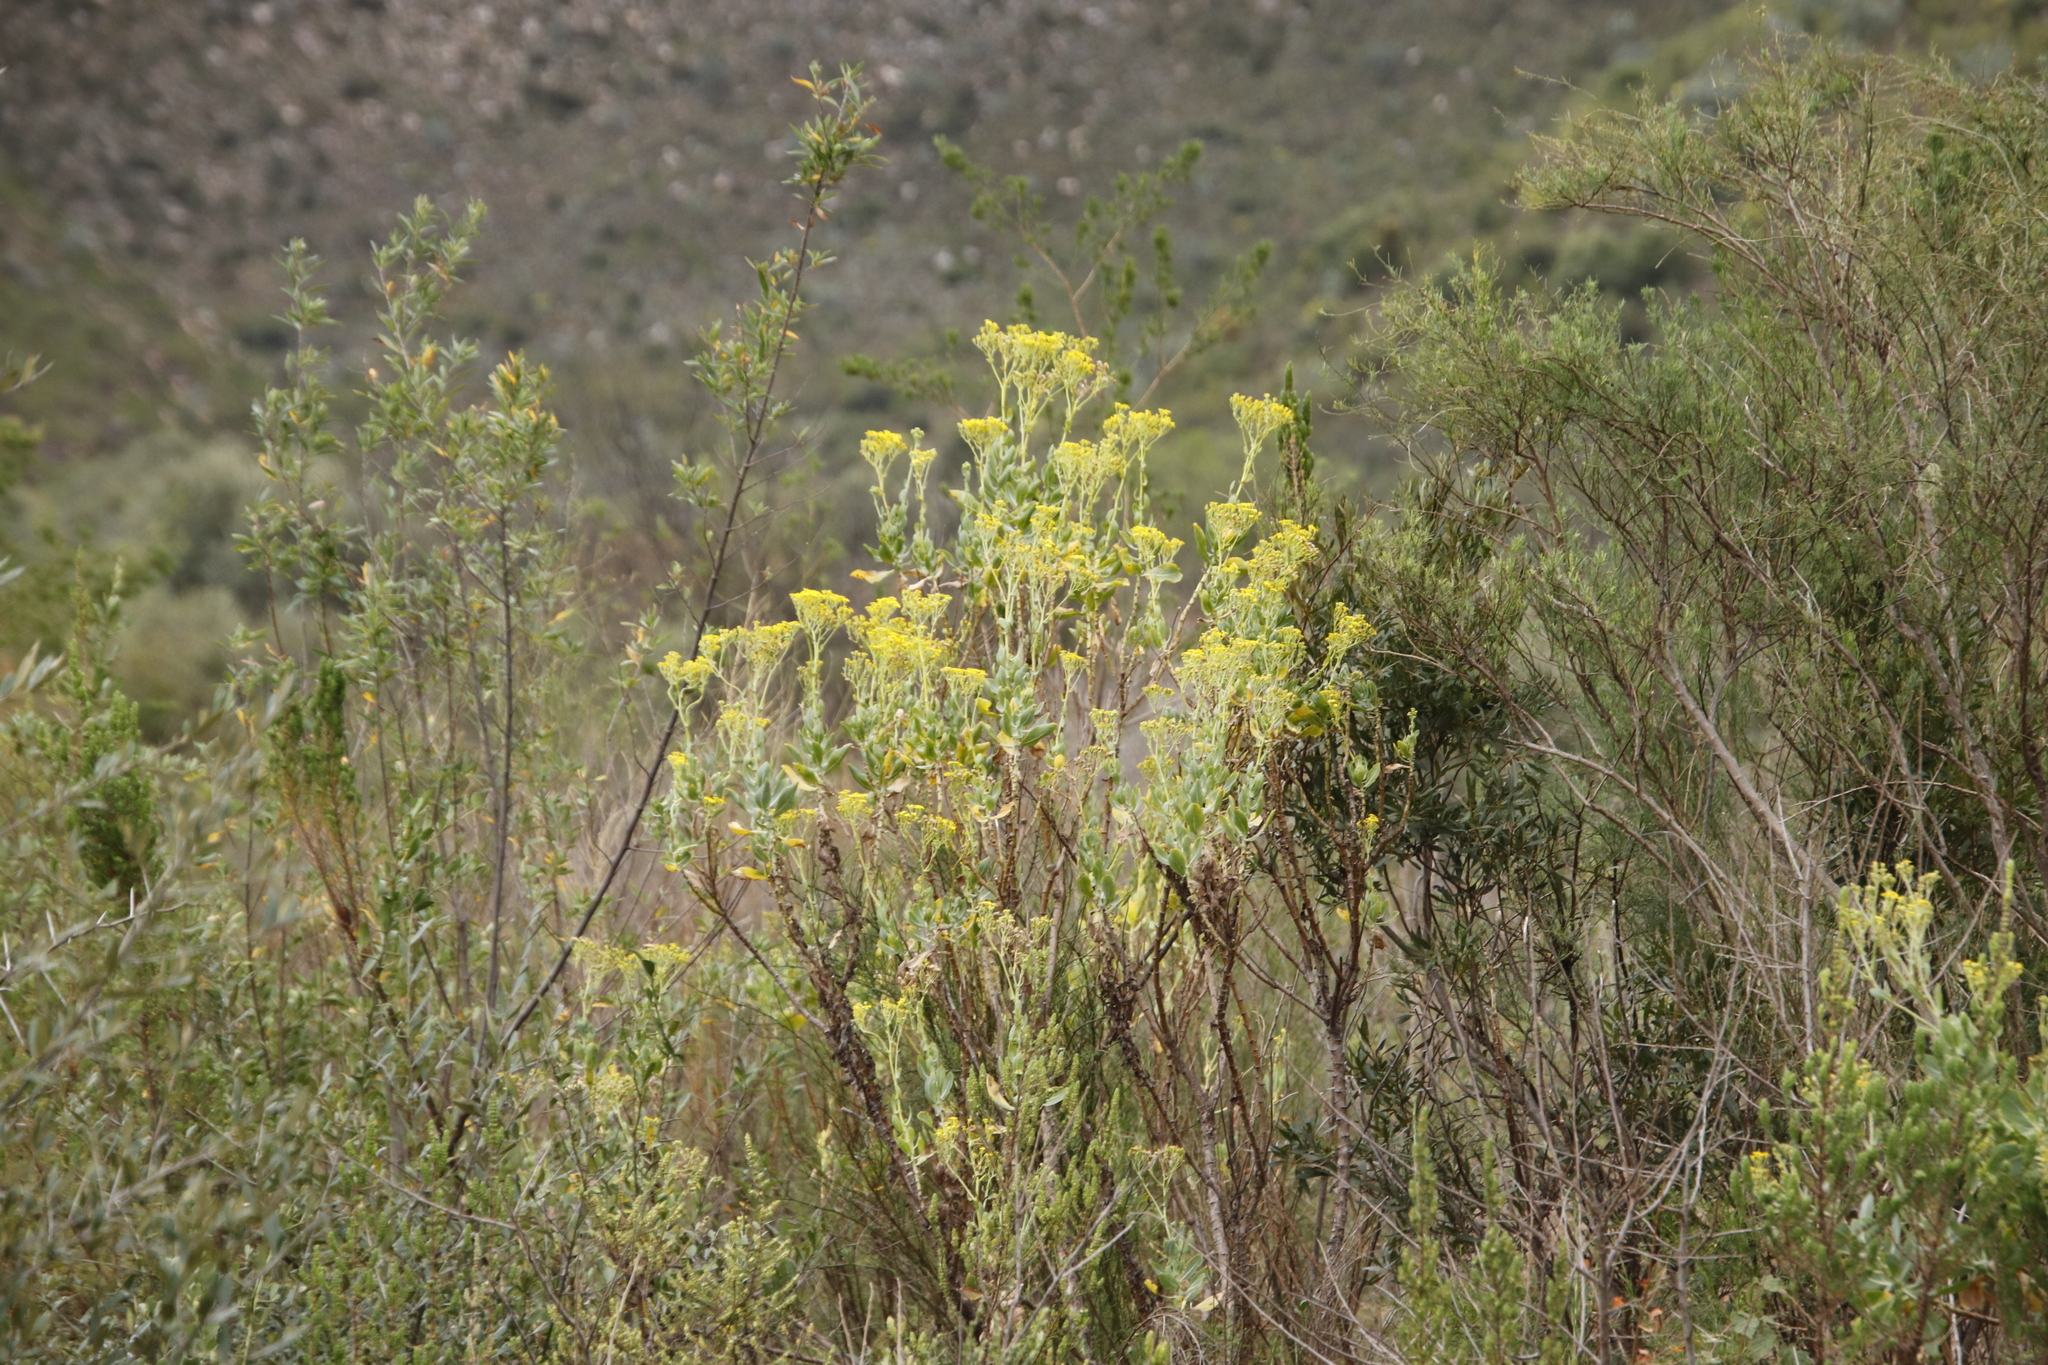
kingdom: Plantae
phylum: Tracheophyta
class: Magnoliopsida
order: Asterales
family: Asteraceae
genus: Othonna
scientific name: Othonna parviflora
